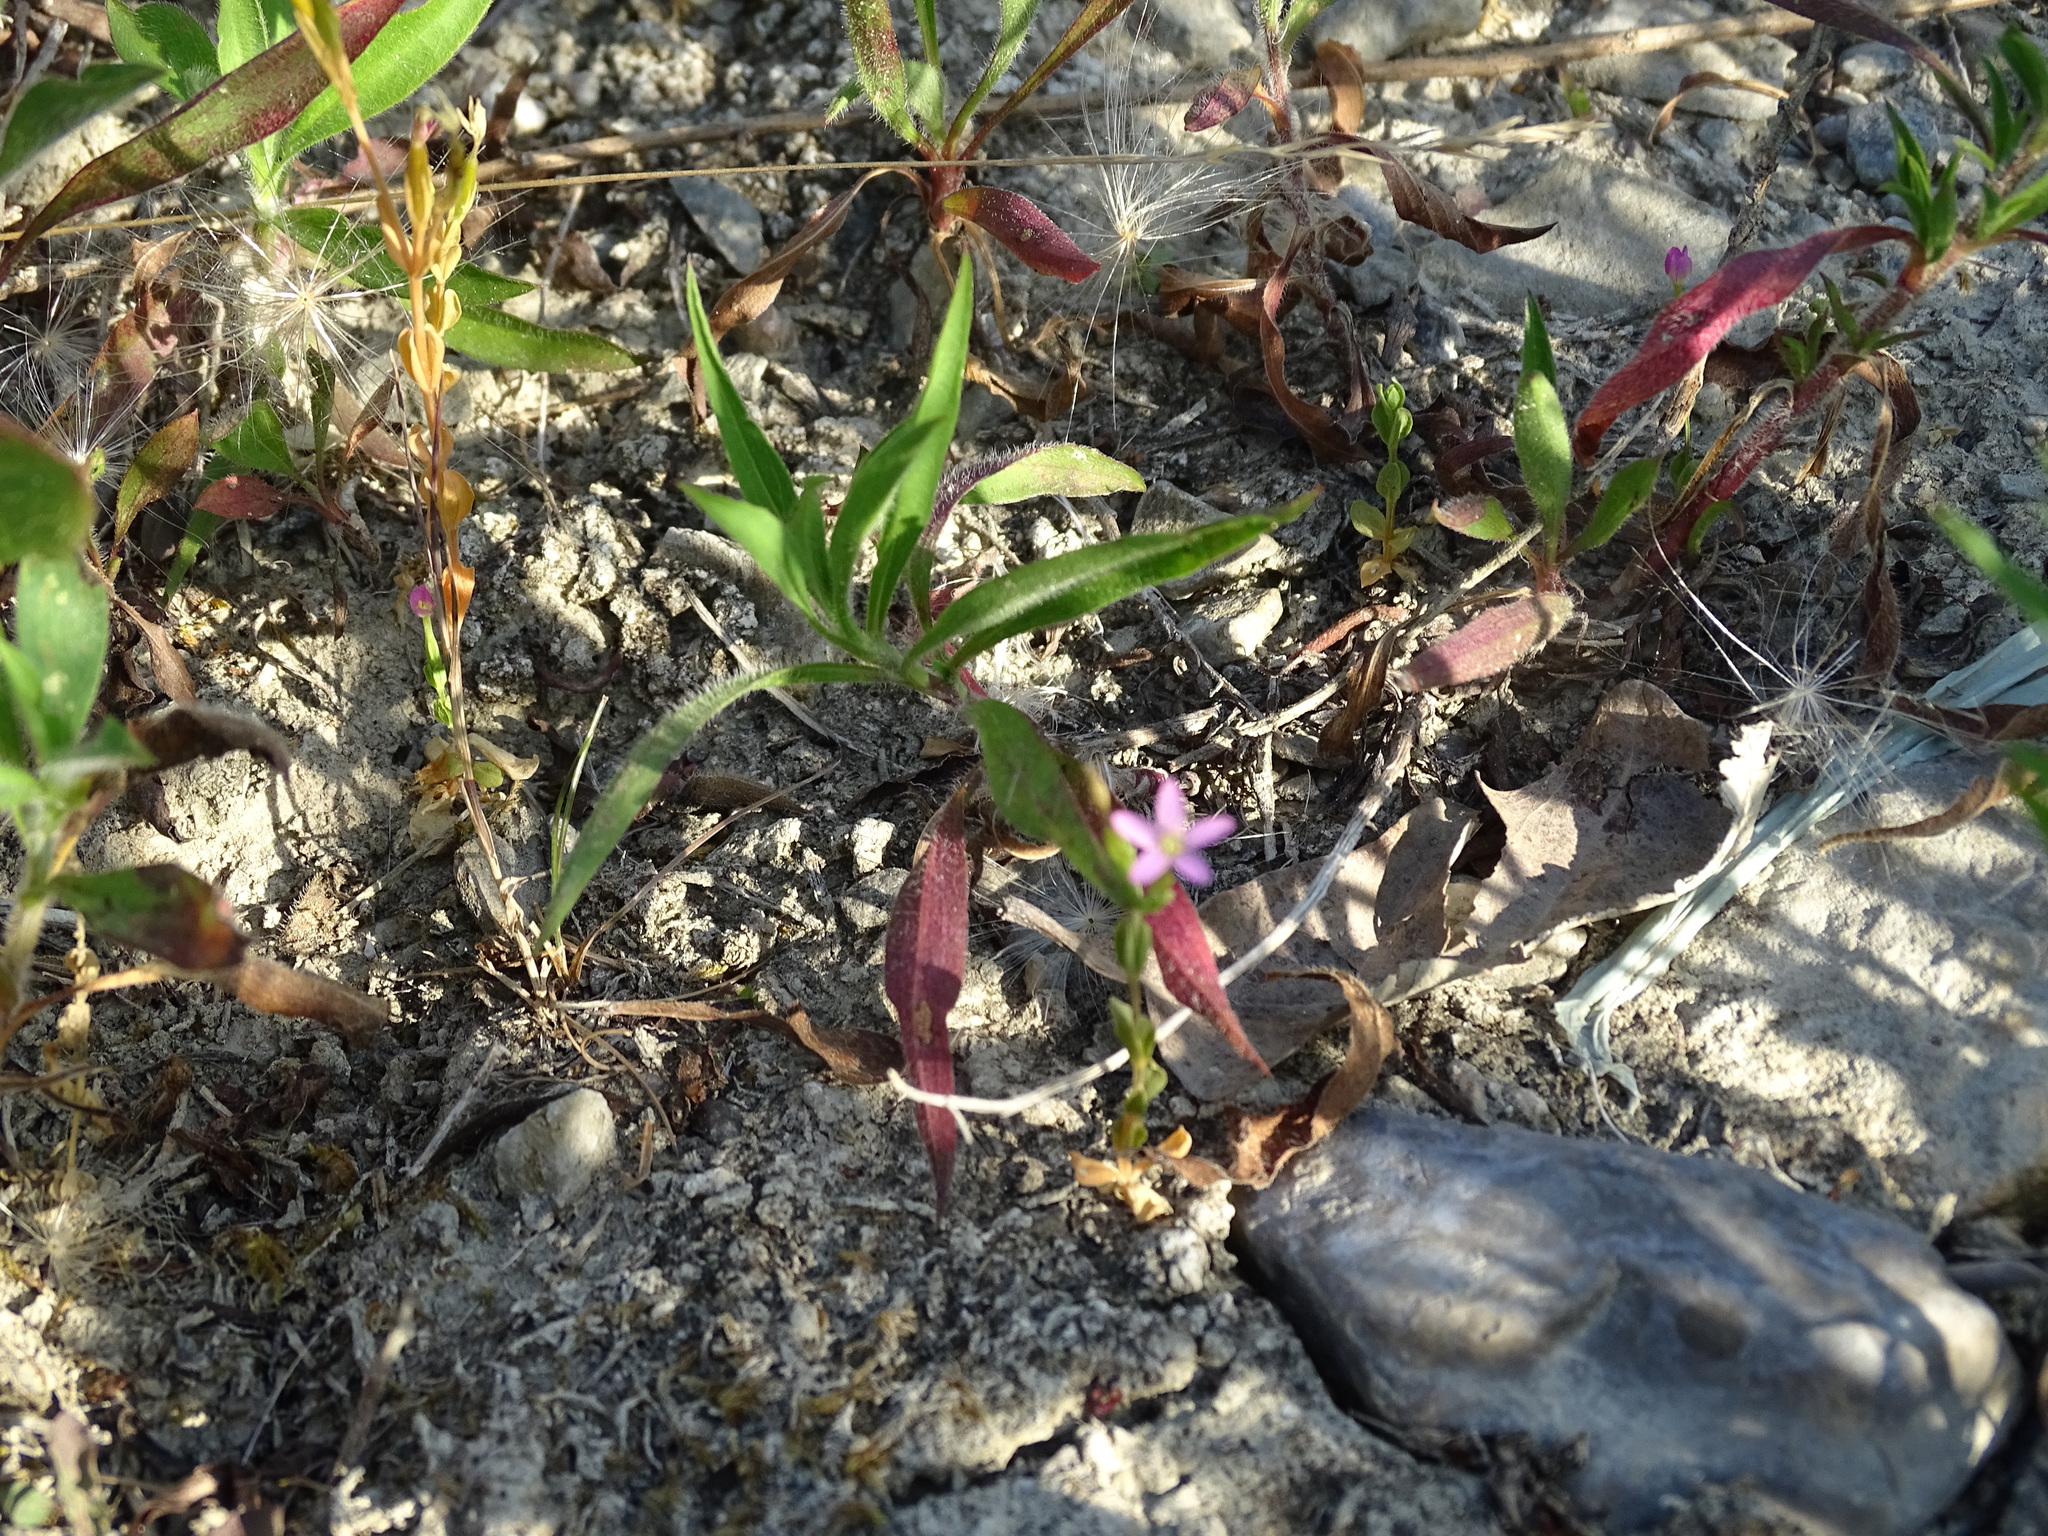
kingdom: Plantae
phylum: Tracheophyta
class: Magnoliopsida
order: Gentianales
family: Gentianaceae
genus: Centaurium
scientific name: Centaurium pulchellum
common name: Lesser centaury
